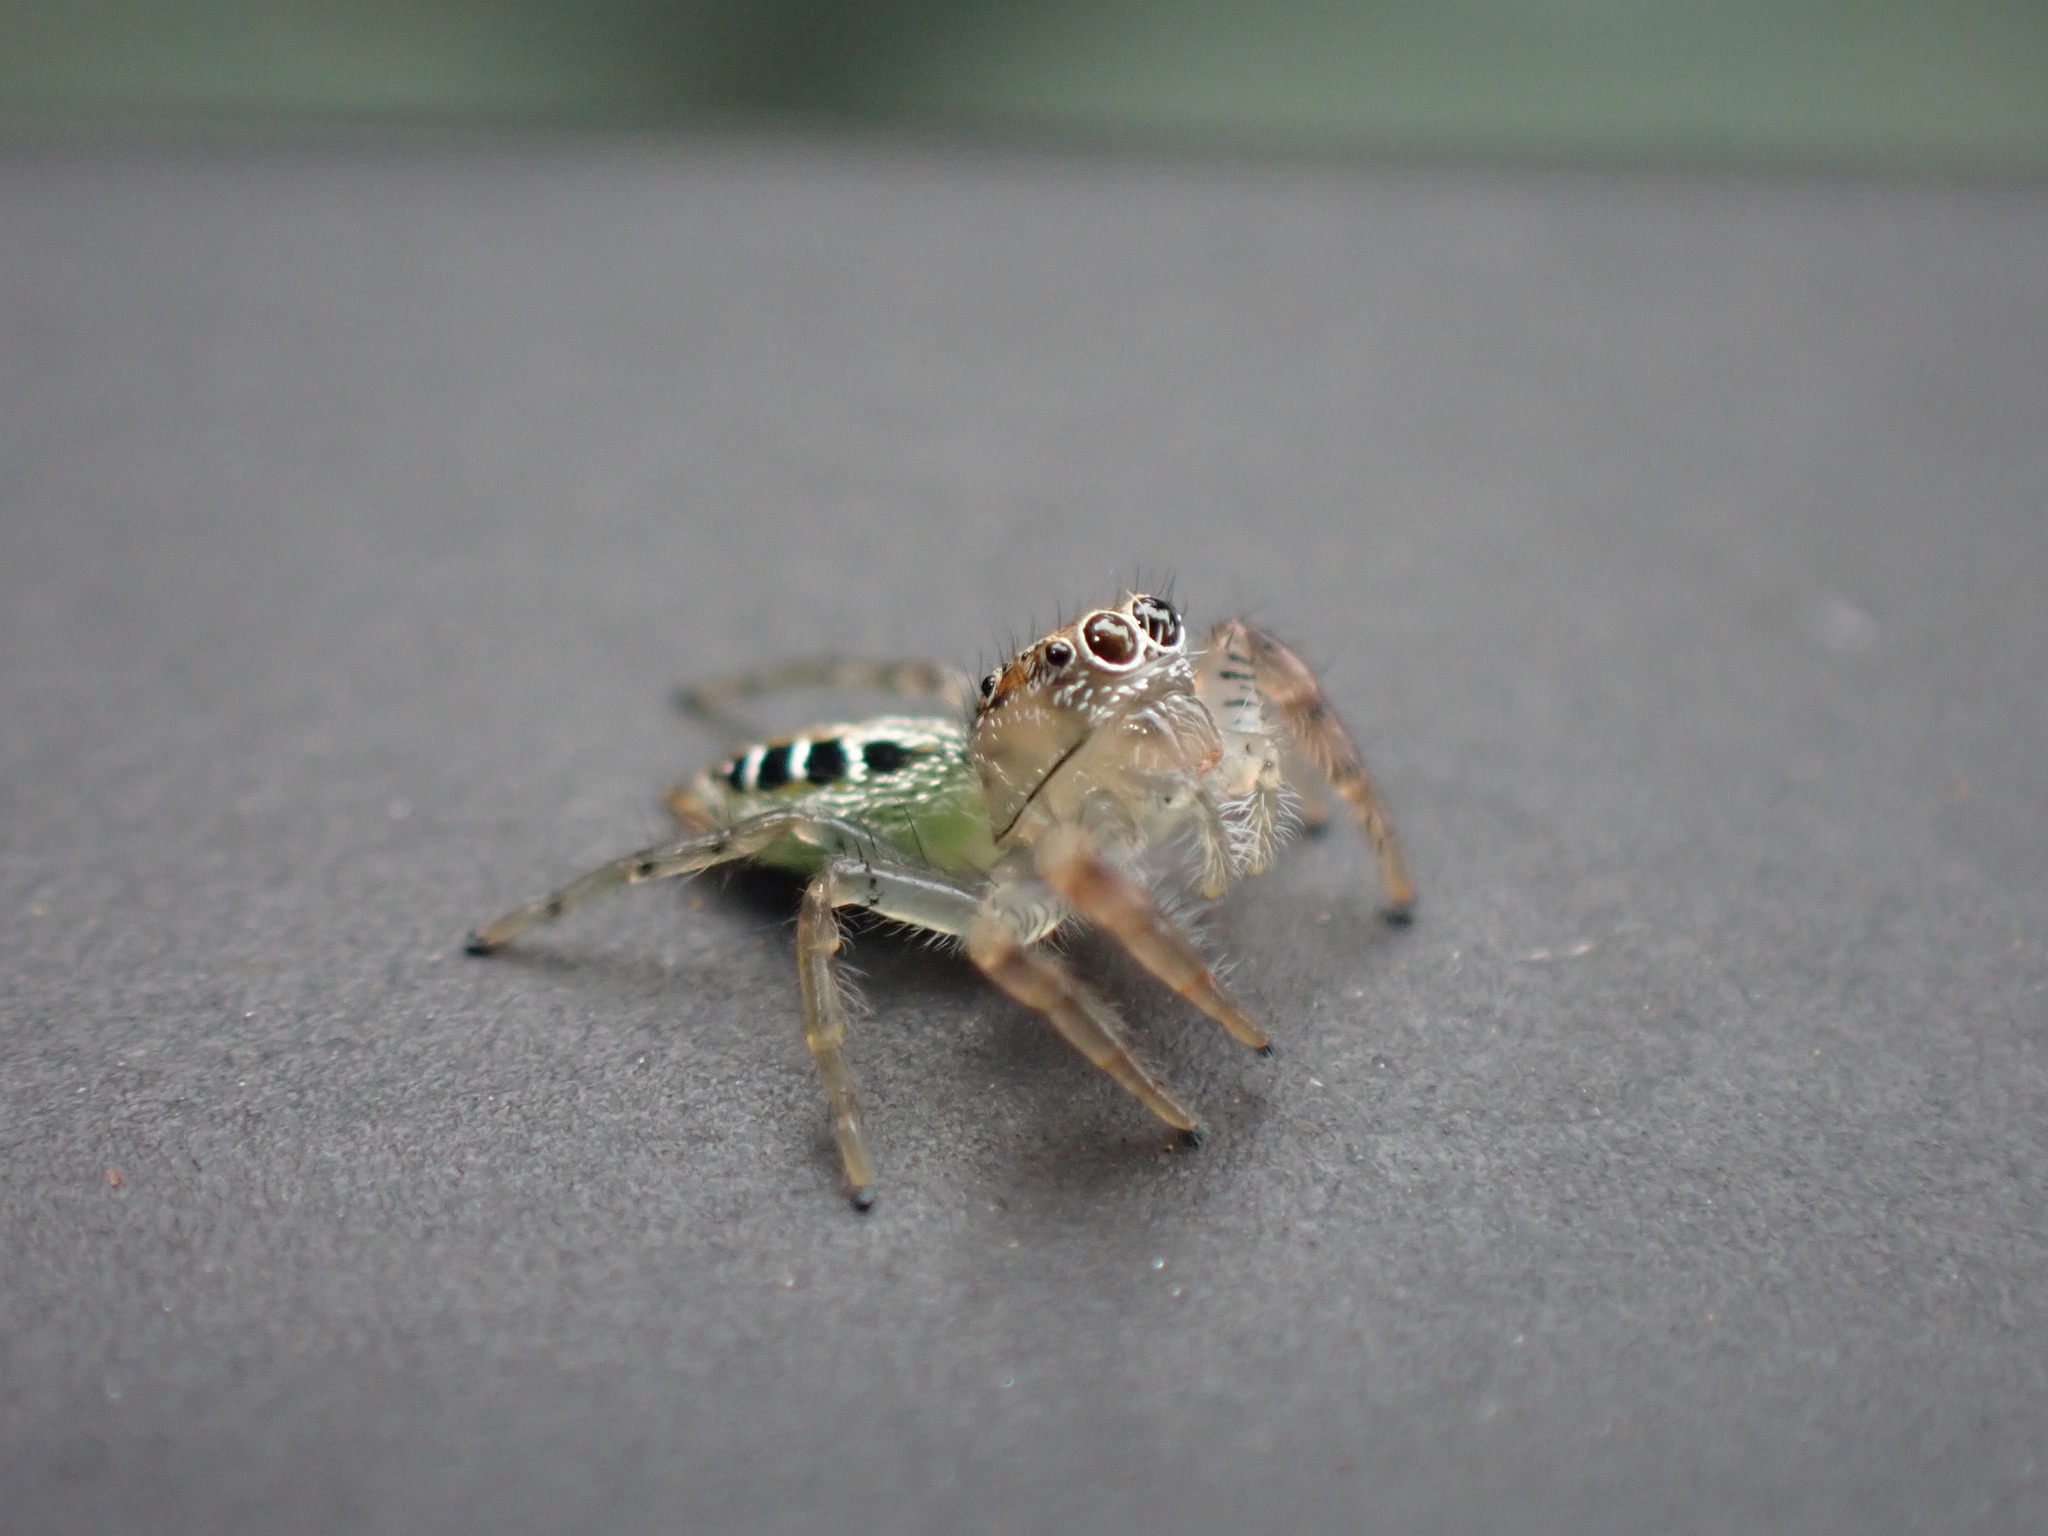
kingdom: Animalia
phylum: Arthropoda
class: Arachnida
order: Araneae
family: Salticidae
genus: Thyene
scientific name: Thyene ogdeni
